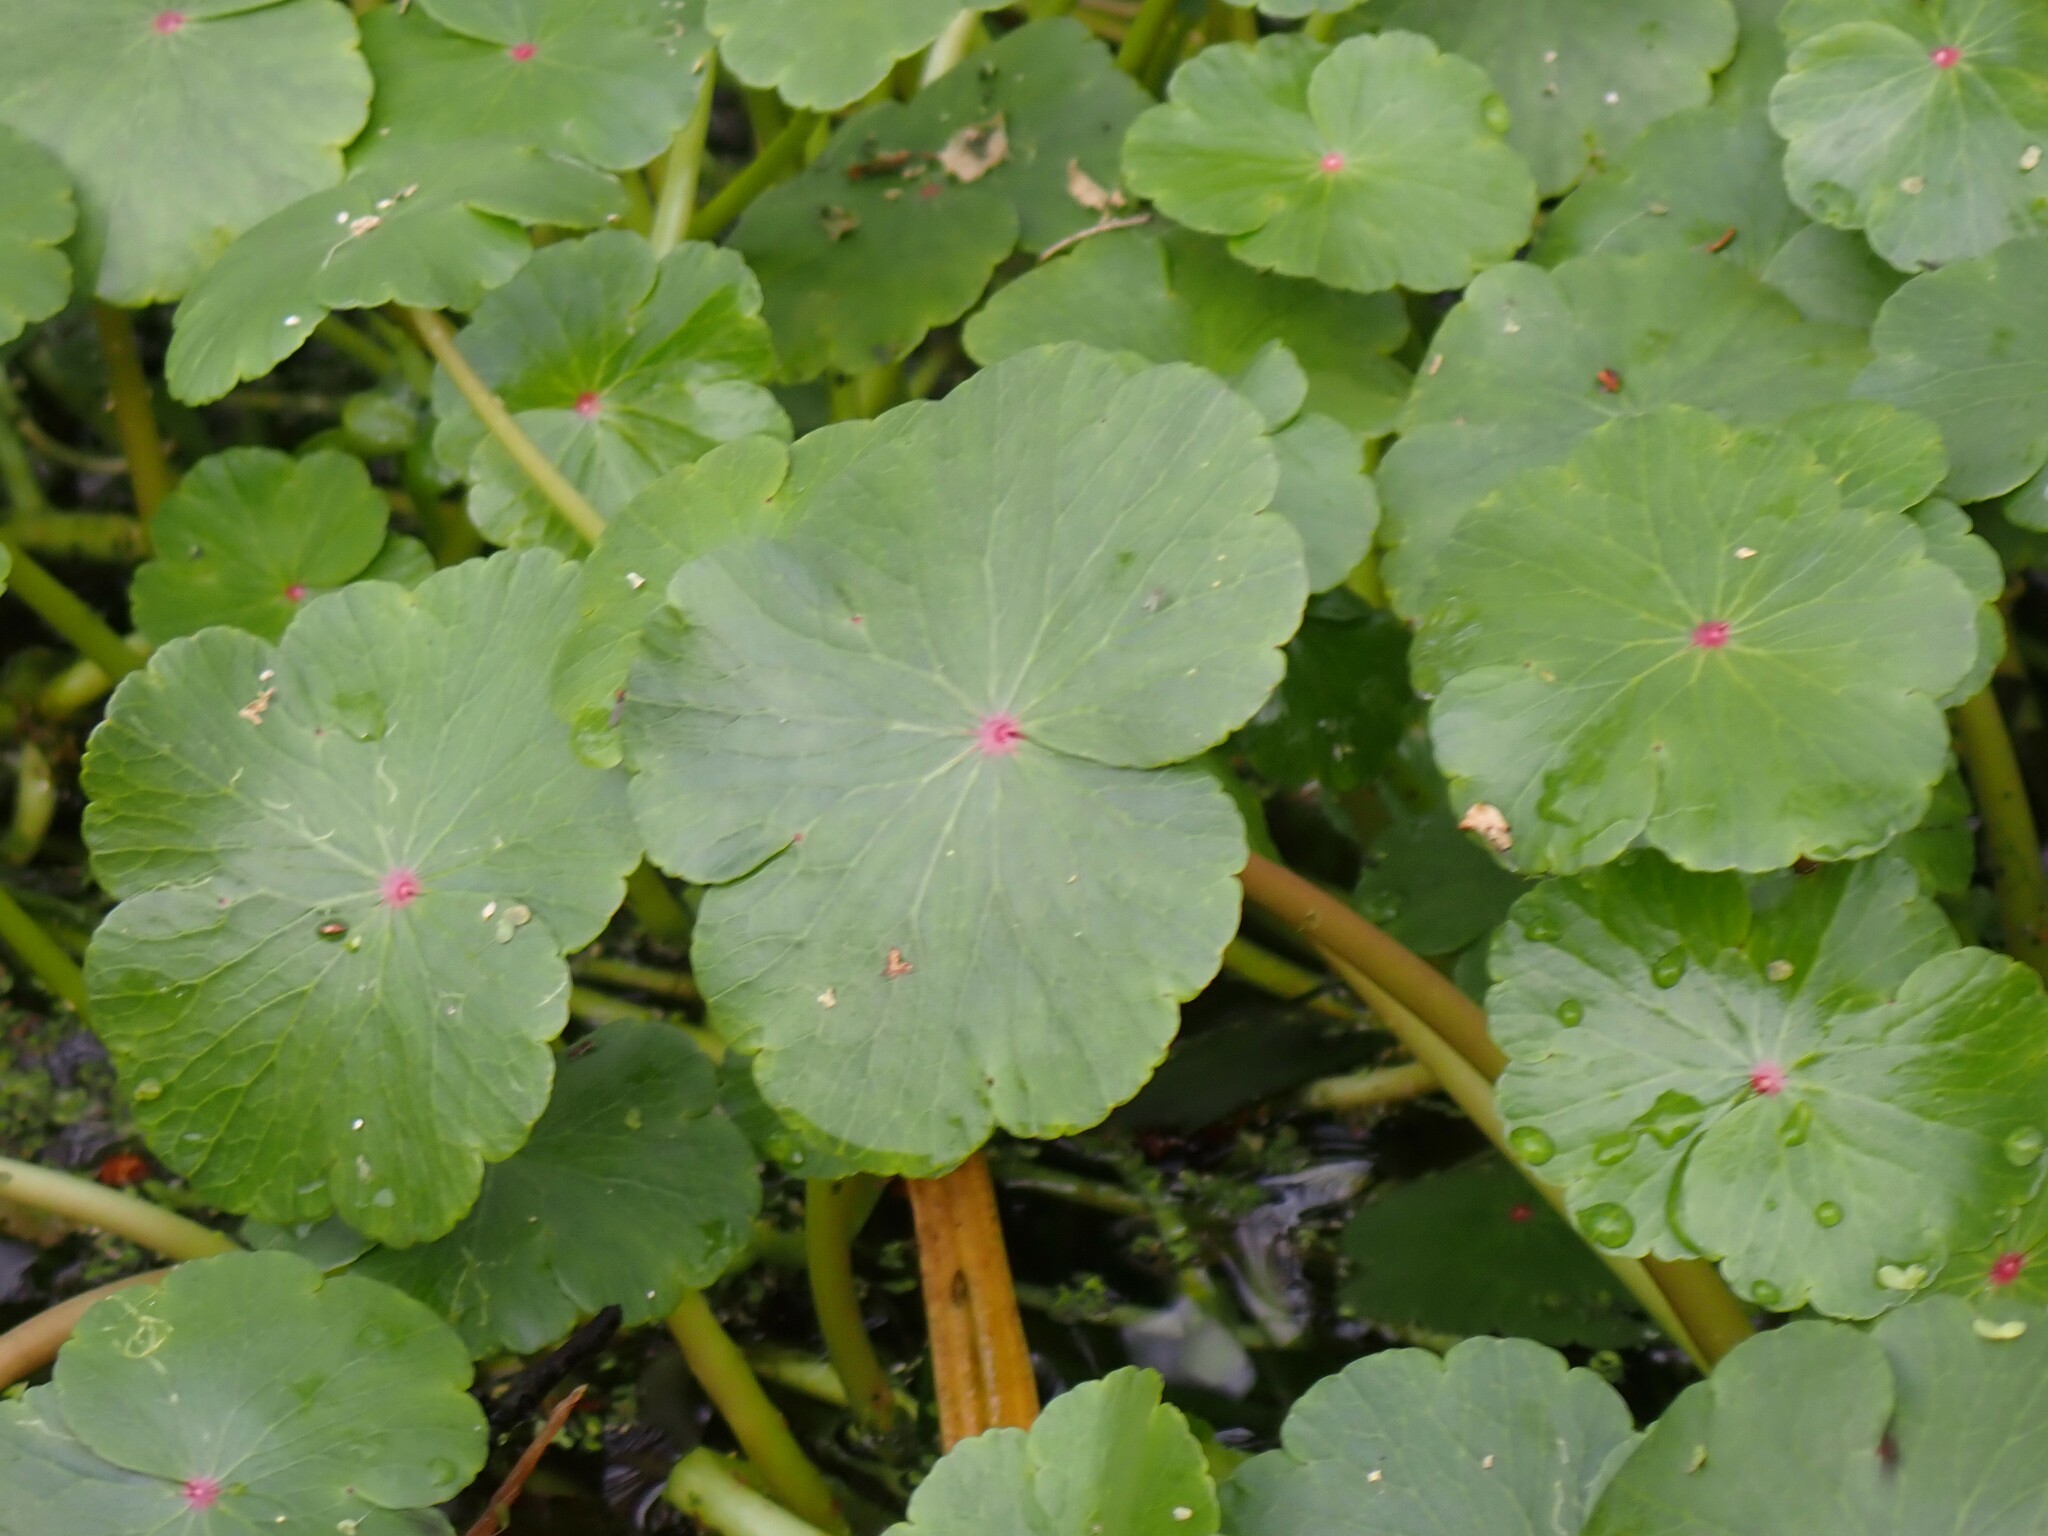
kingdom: Plantae
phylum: Tracheophyta
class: Magnoliopsida
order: Apiales
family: Araliaceae
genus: Hydrocotyle
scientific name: Hydrocotyle ranunculoides
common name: Floating pennywort
